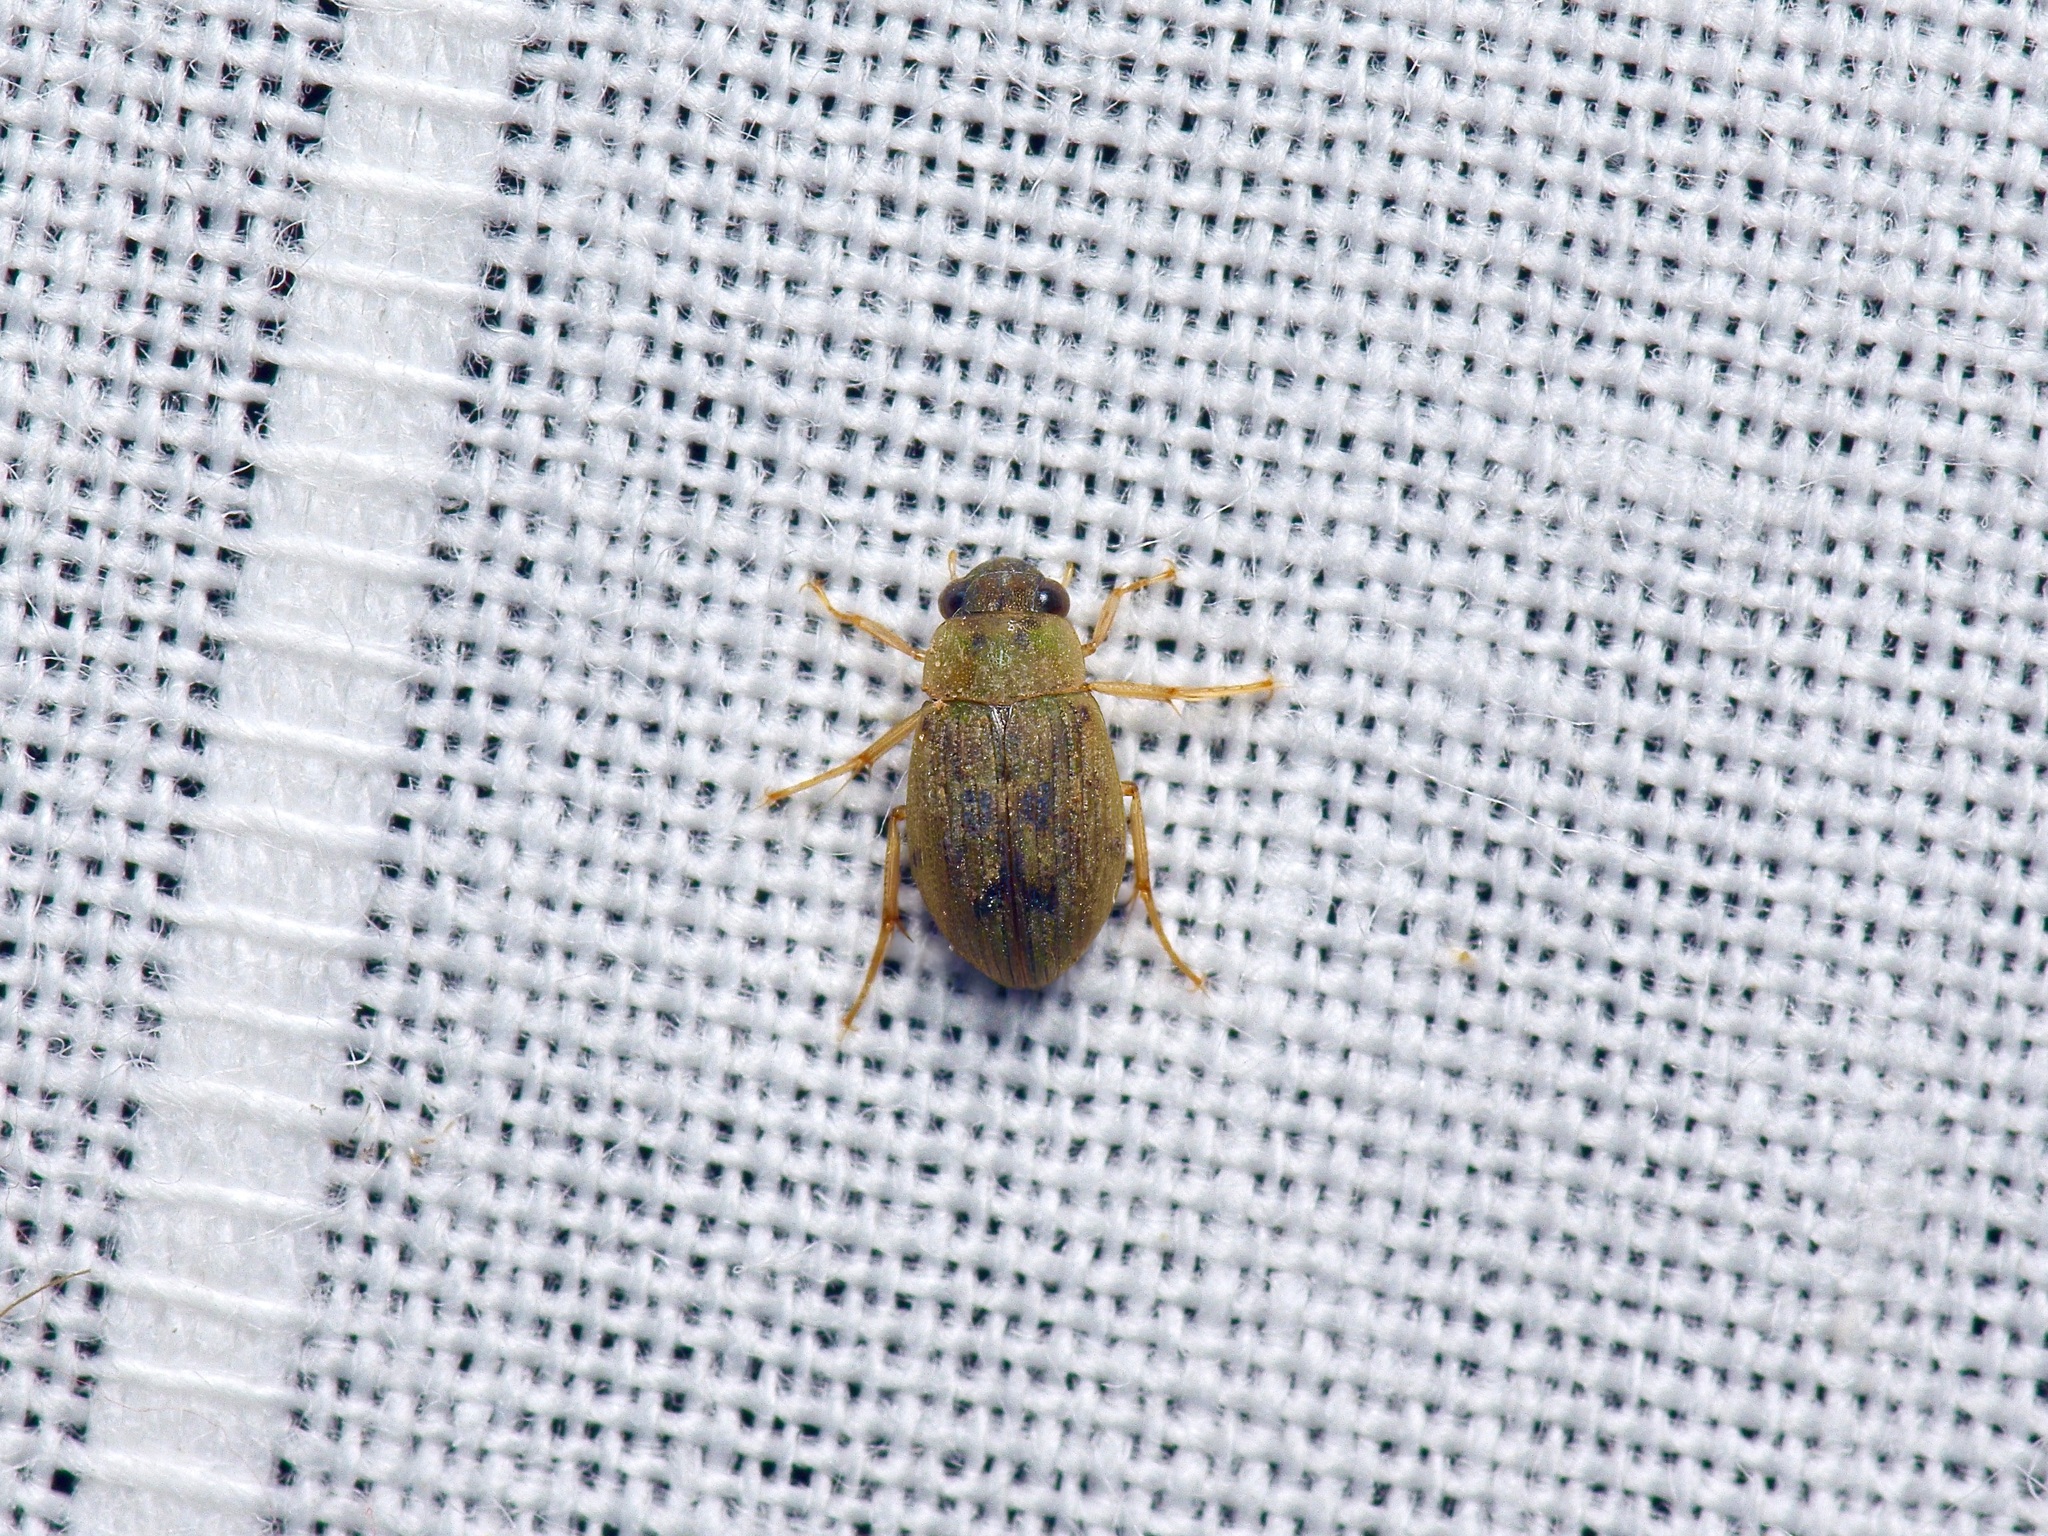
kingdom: Animalia
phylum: Arthropoda
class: Insecta
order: Coleoptera
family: Hydrophilidae
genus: Berosus
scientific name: Berosus
